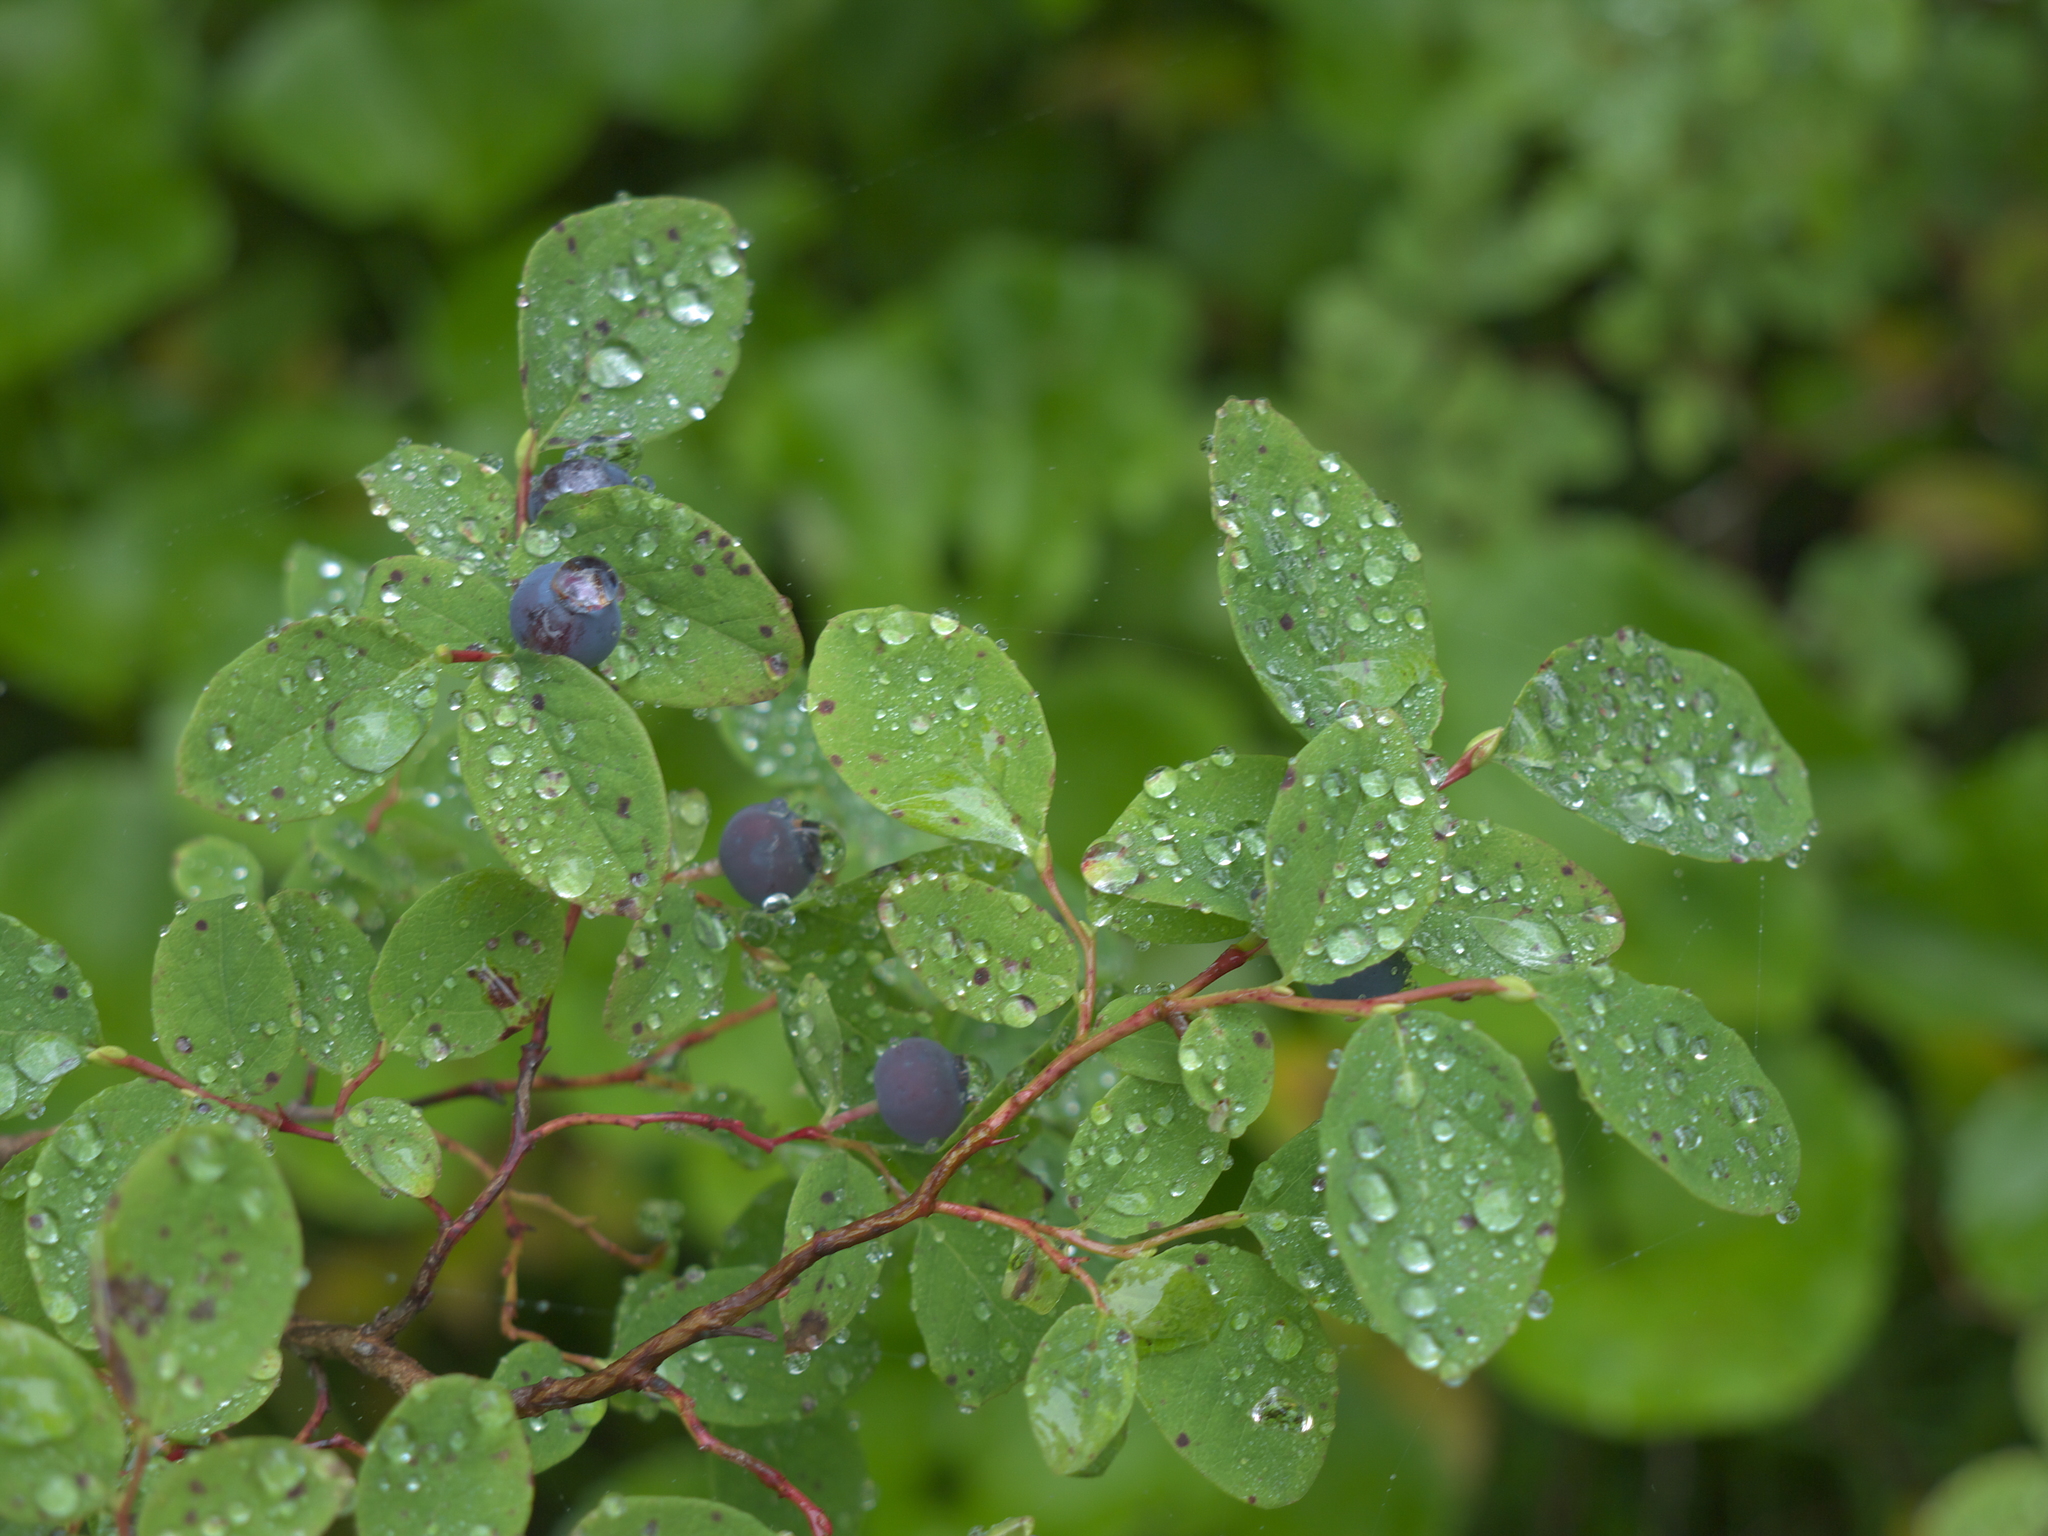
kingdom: Plantae
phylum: Tracheophyta
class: Magnoliopsida
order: Ericales
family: Ericaceae
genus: Vaccinium
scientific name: Vaccinium ovalifolium
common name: Early blueberry
